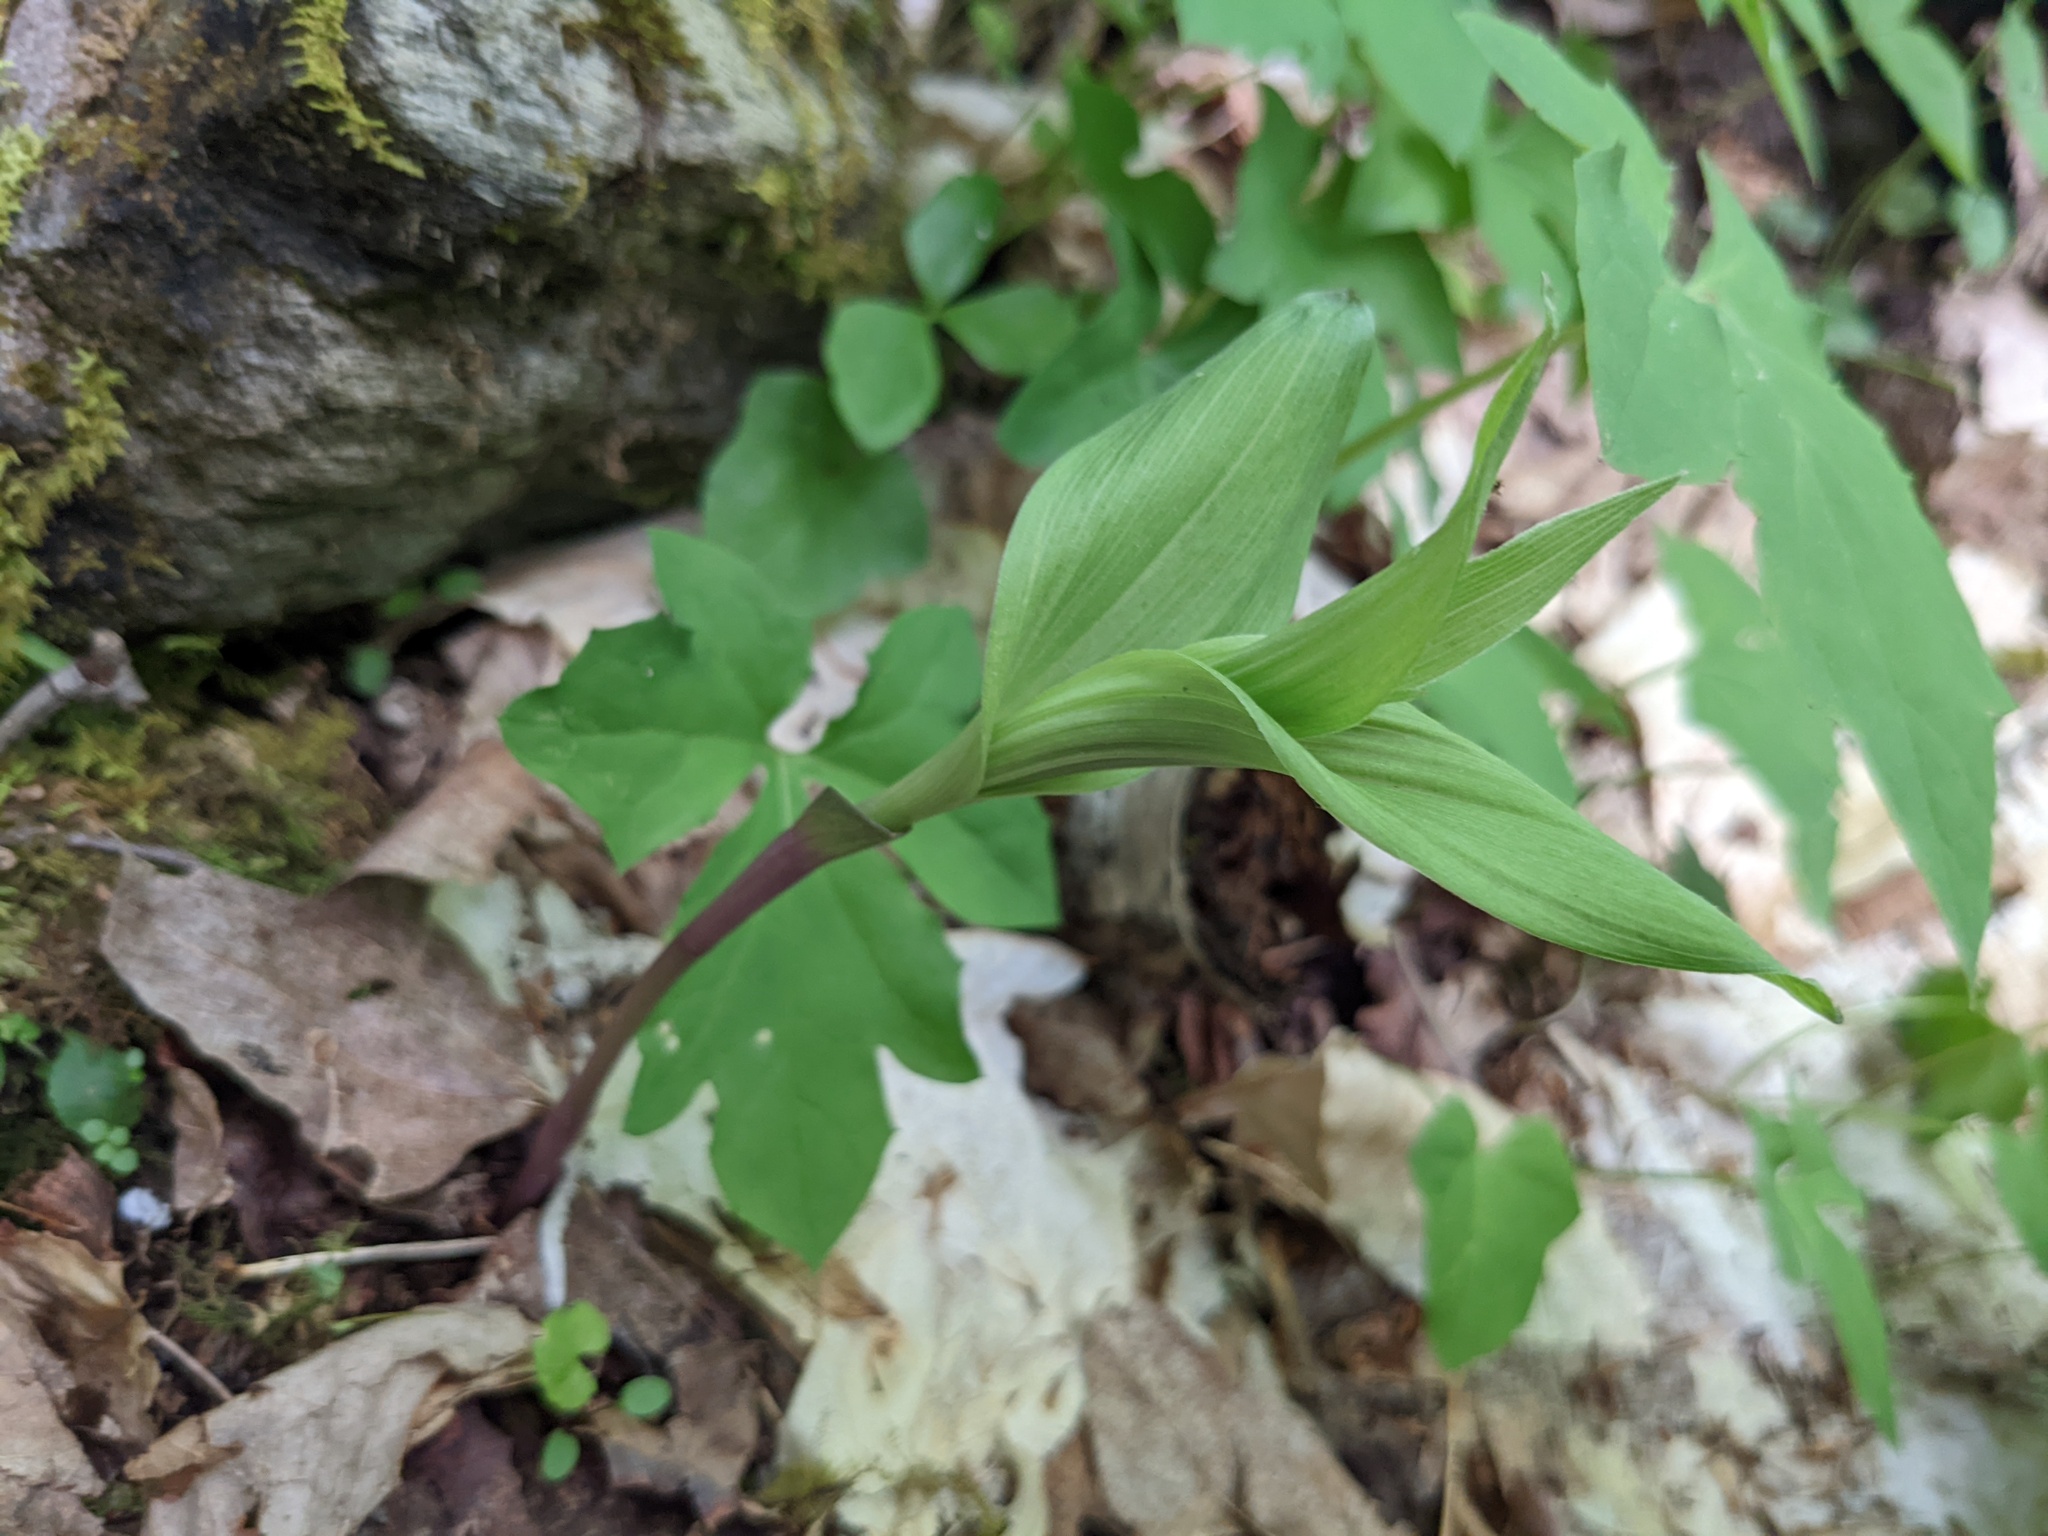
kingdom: Plantae
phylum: Tracheophyta
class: Liliopsida
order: Asparagales
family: Orchidaceae
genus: Epipactis
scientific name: Epipactis helleborine
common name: Broad-leaved helleborine
